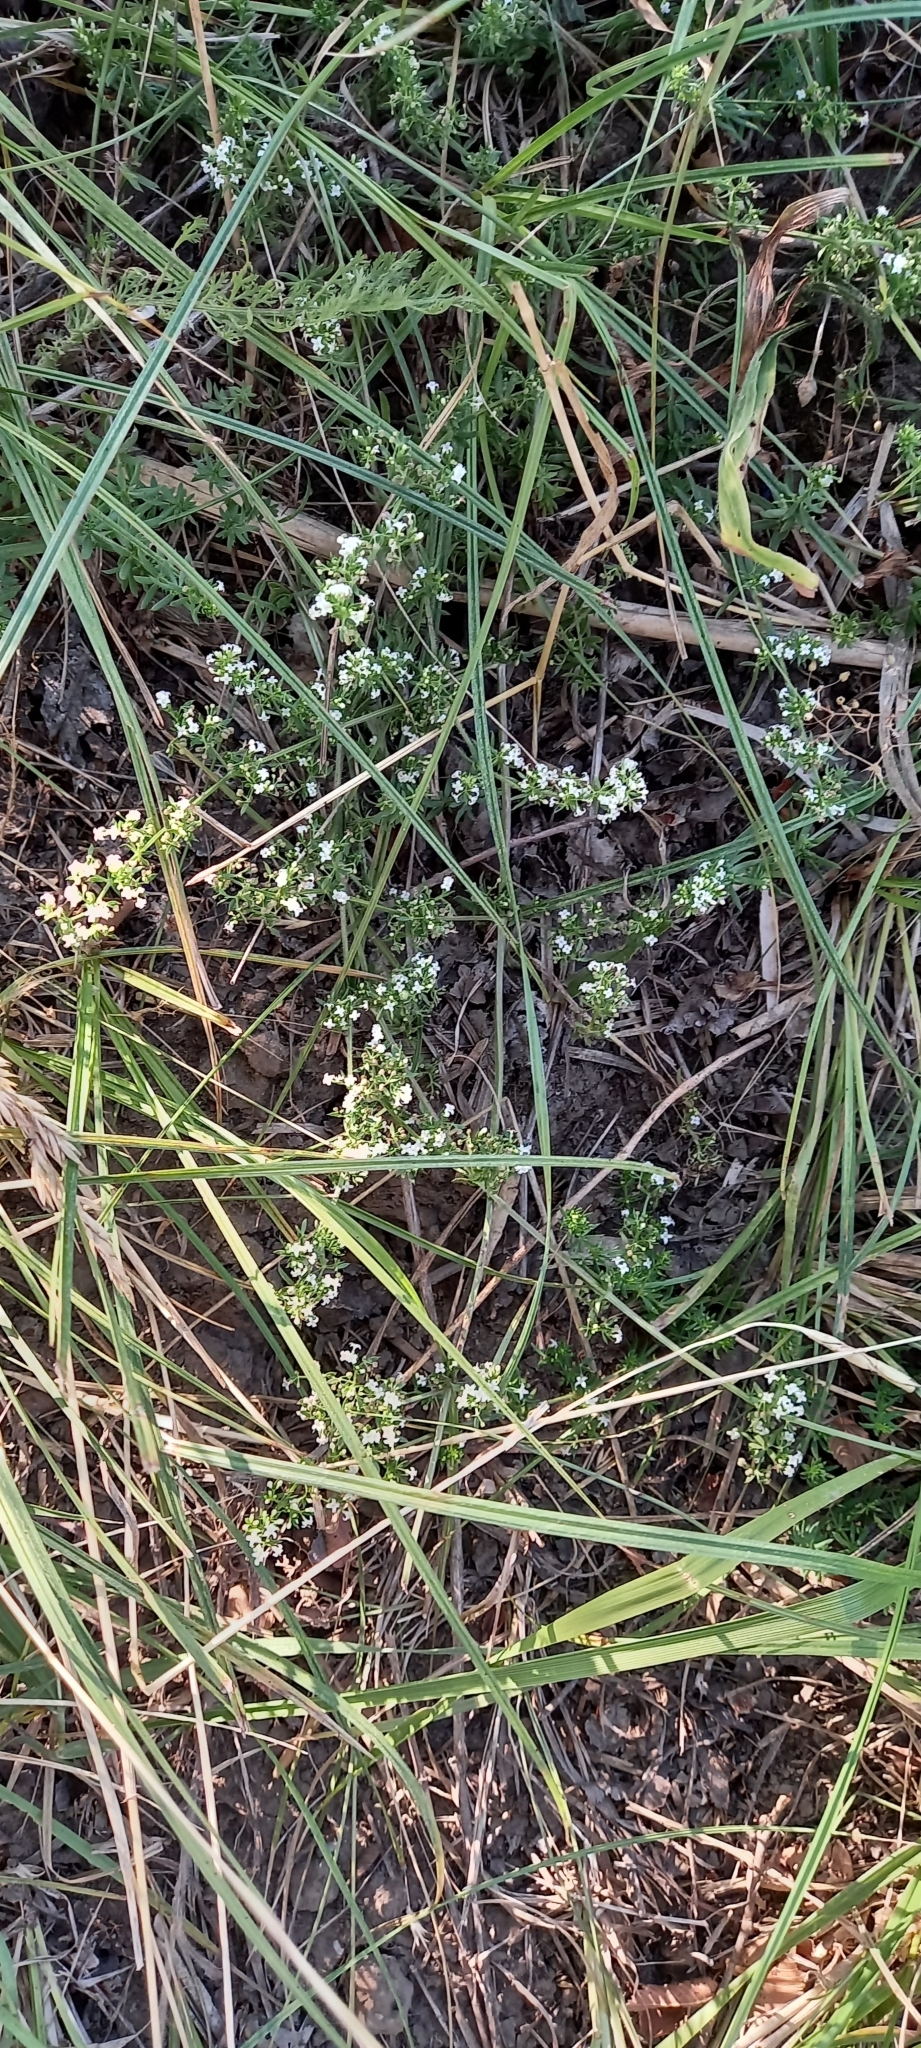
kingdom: Plantae
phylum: Tracheophyta
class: Magnoliopsida
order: Gentianales
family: Rubiaceae
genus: Galium
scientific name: Galium humifusum
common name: Spreading bedstraw
